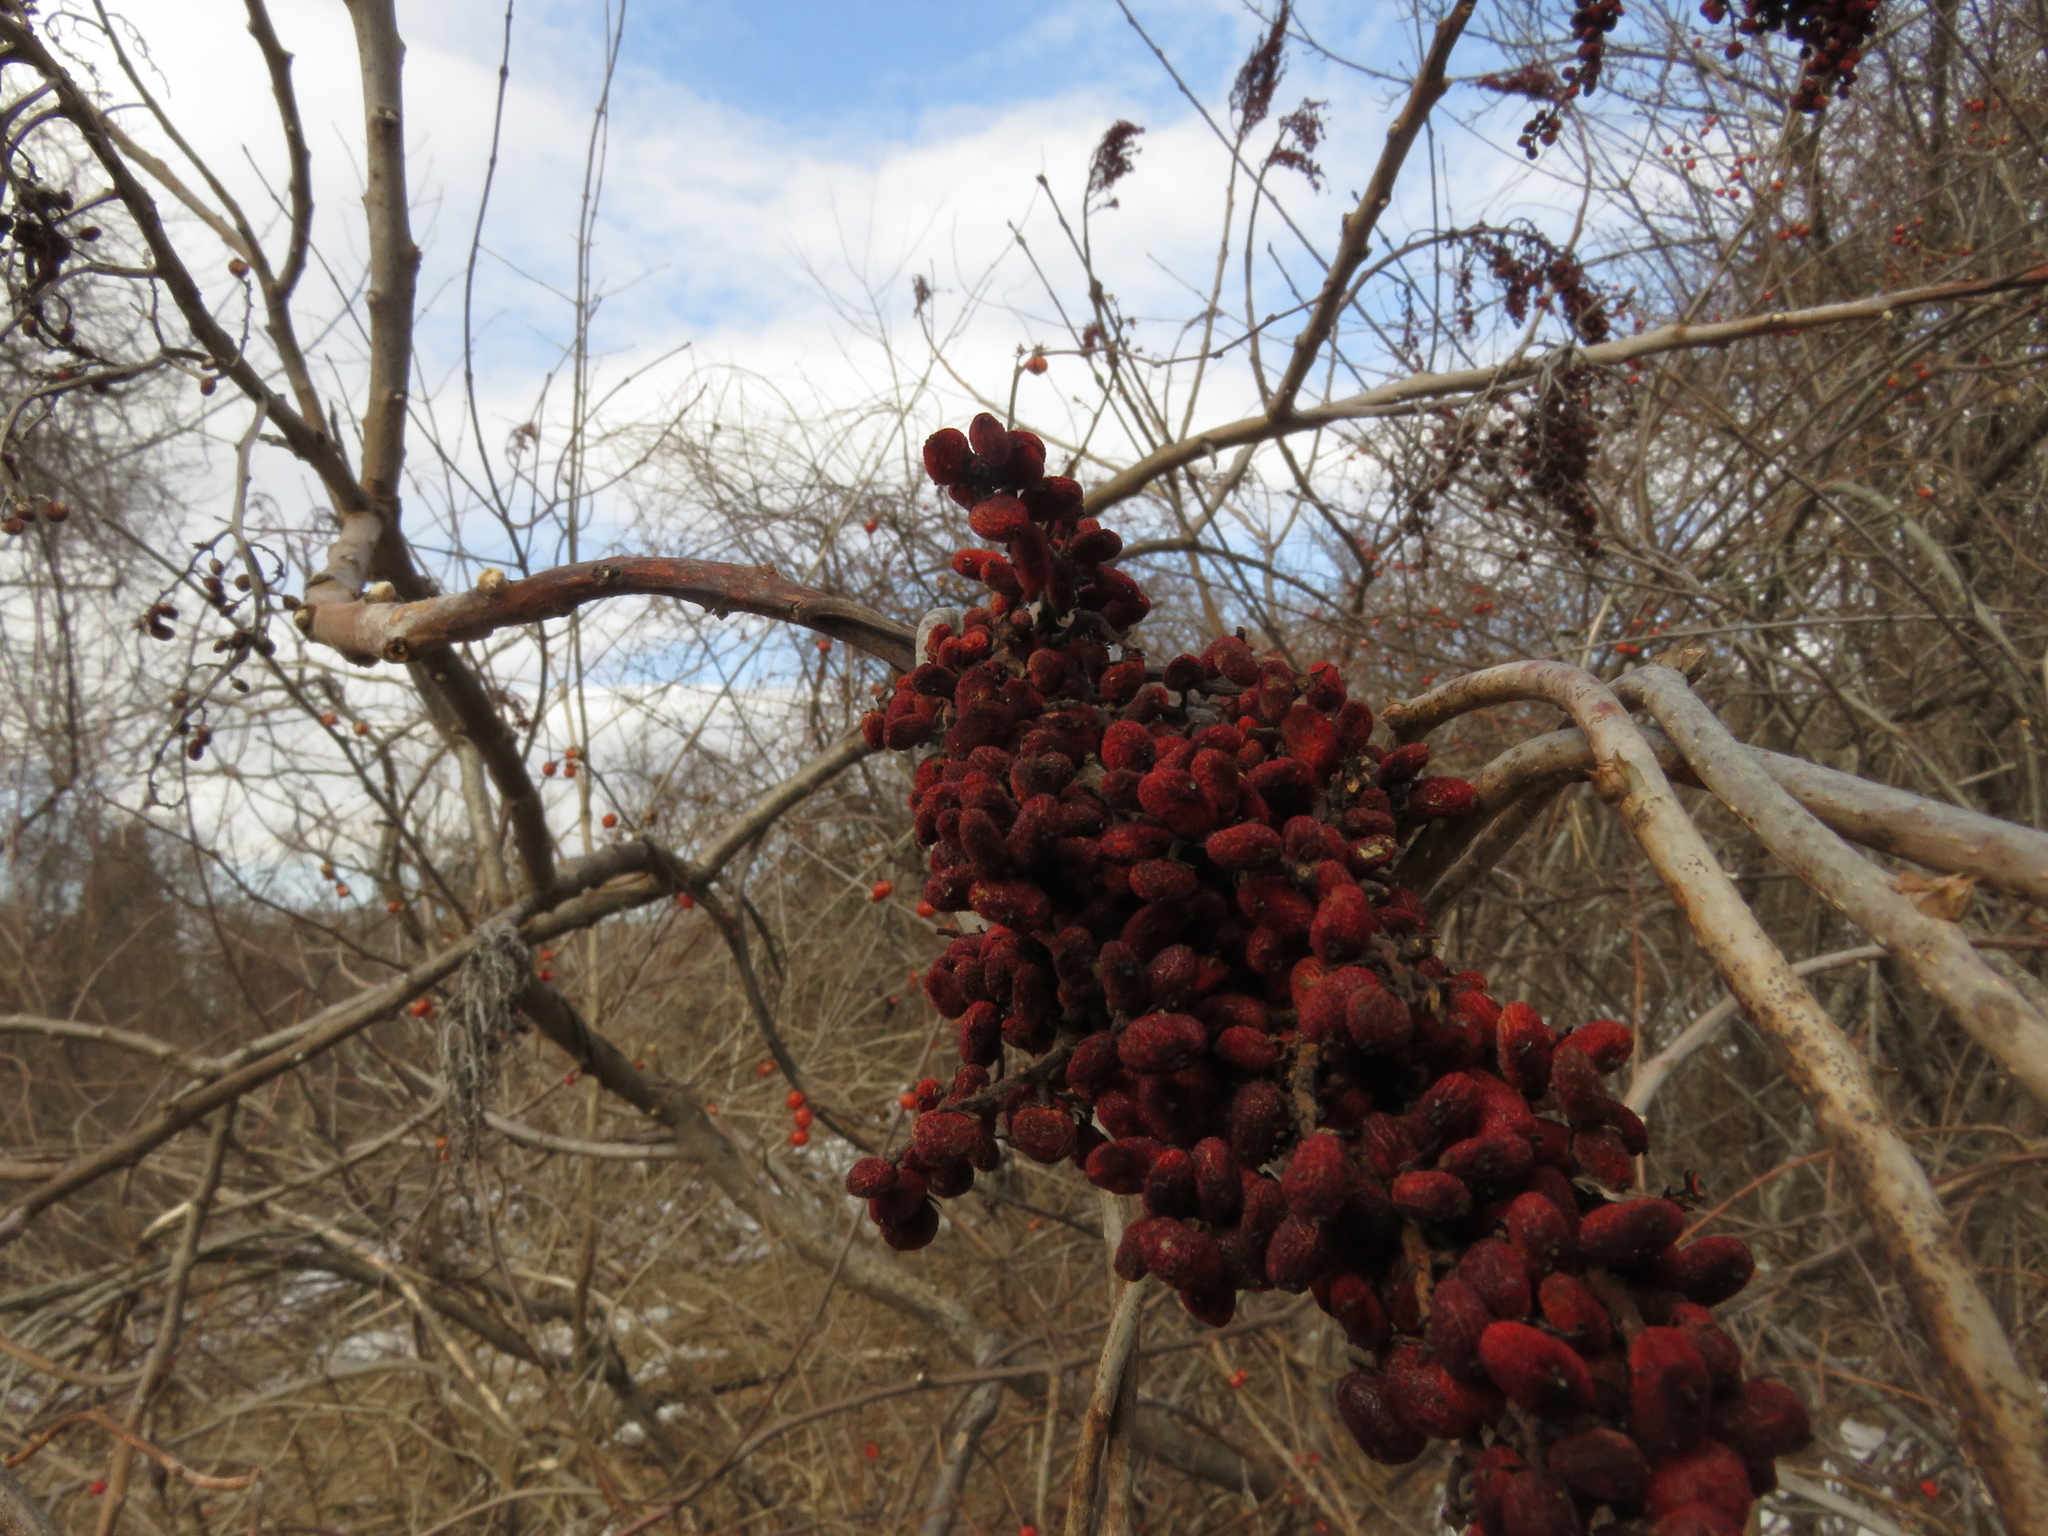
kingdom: Plantae
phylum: Tracheophyta
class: Magnoliopsida
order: Sapindales
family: Anacardiaceae
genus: Rhus
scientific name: Rhus glabra
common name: Scarlet sumac
